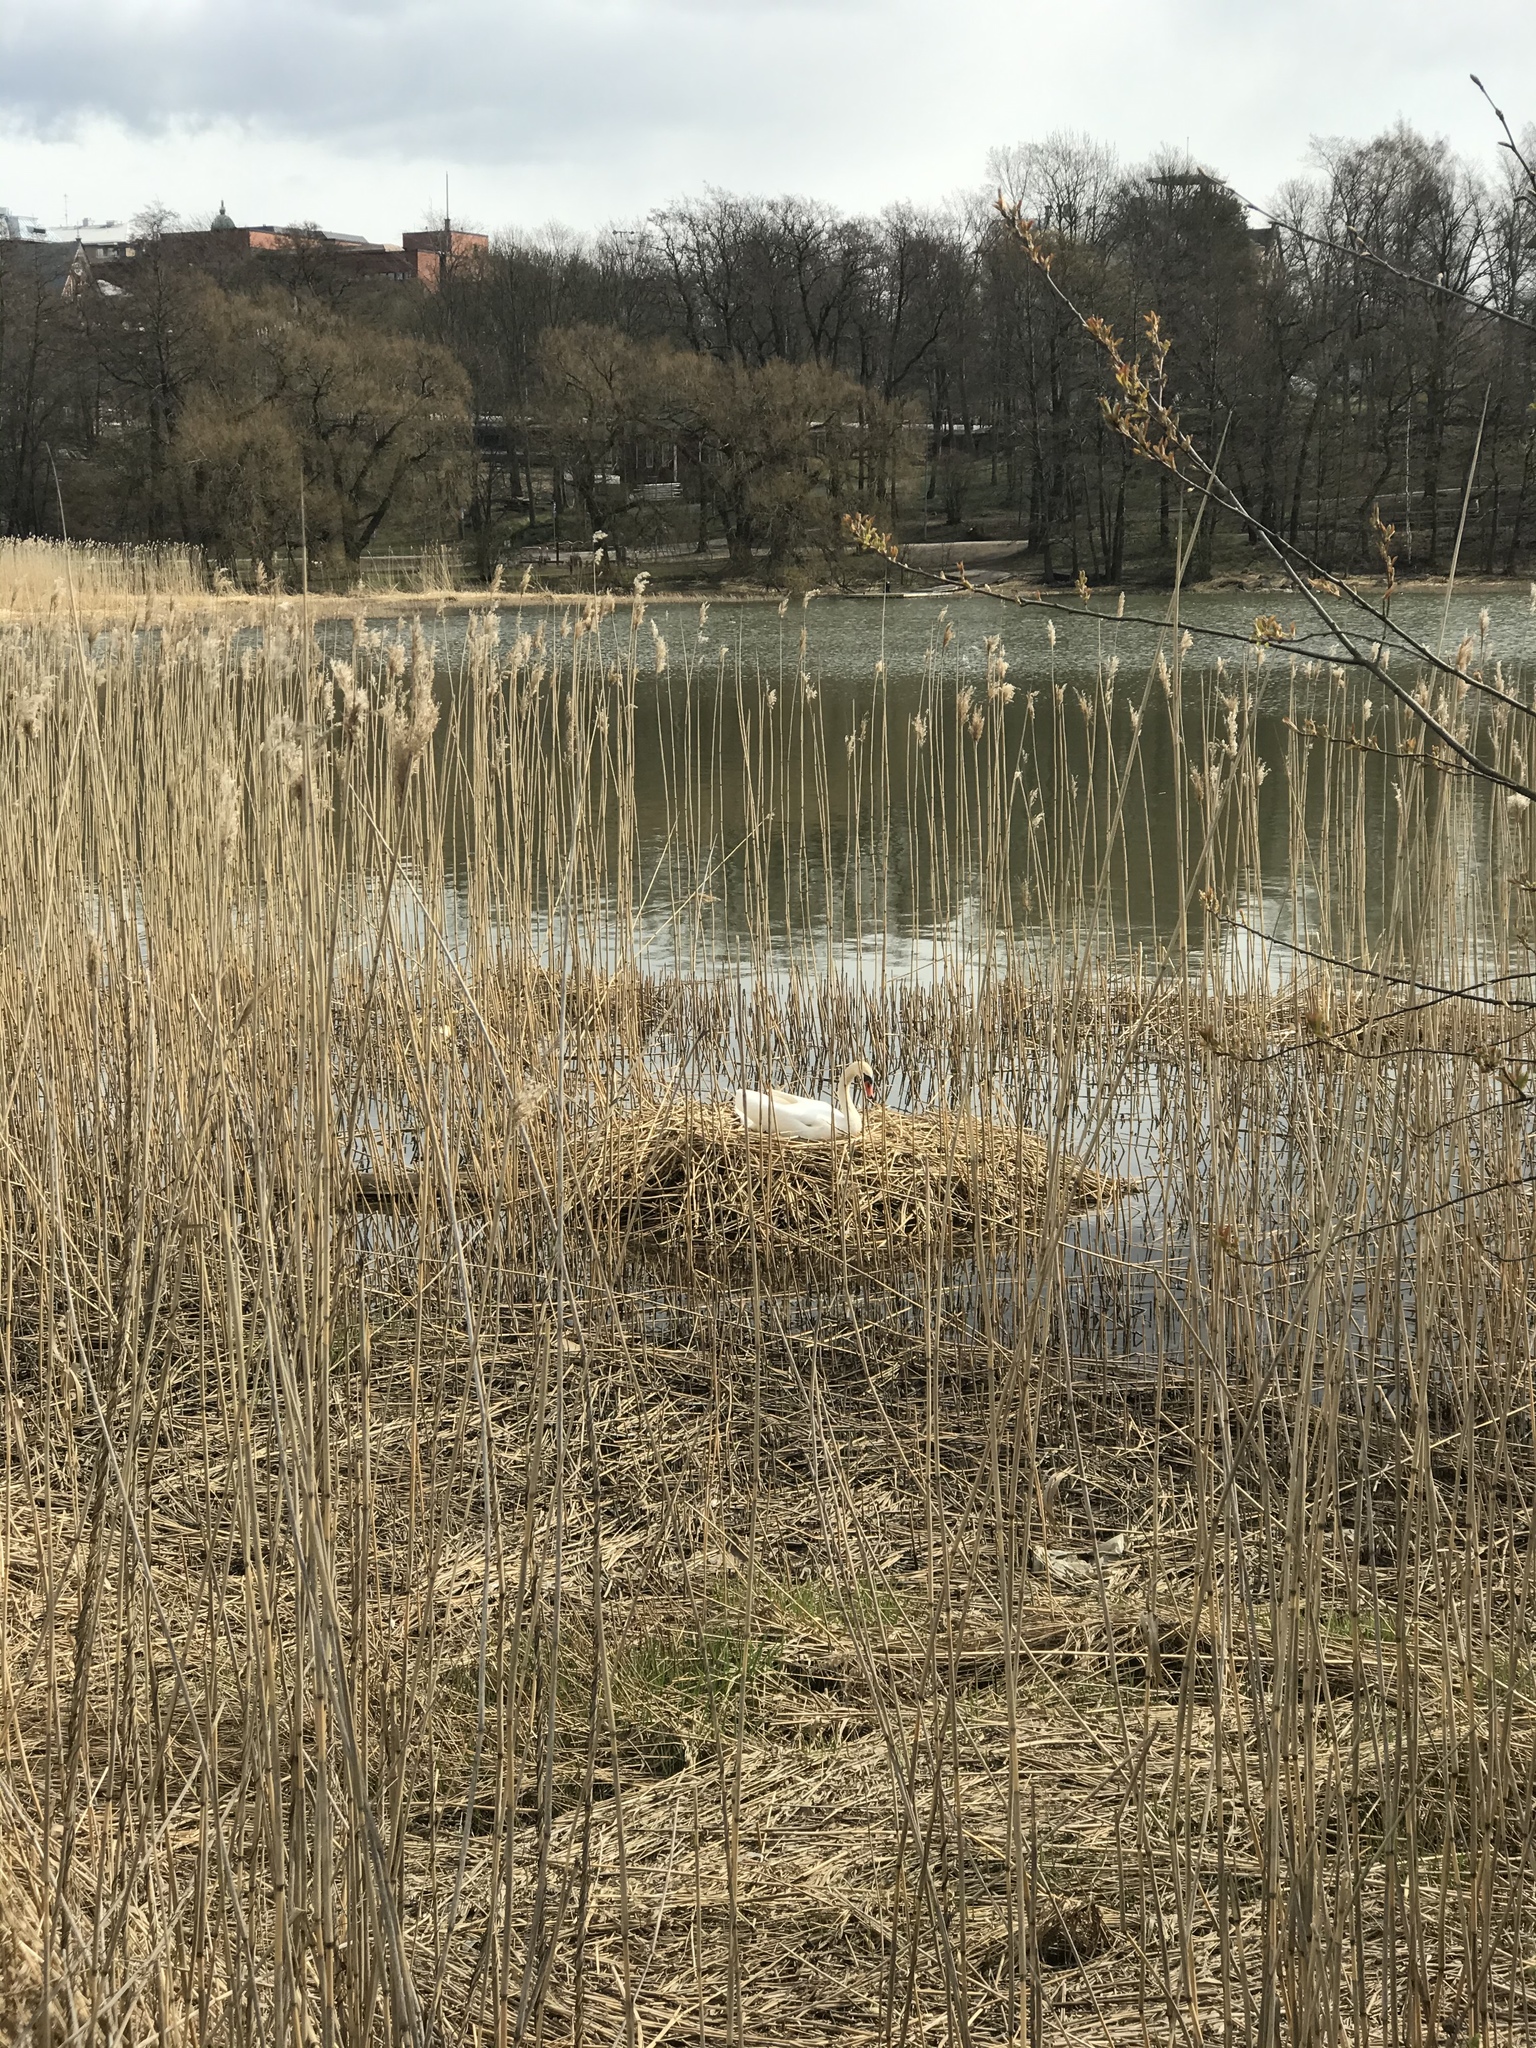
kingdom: Animalia
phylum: Chordata
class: Aves
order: Anseriformes
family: Anatidae
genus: Cygnus
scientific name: Cygnus olor
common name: Mute swan
